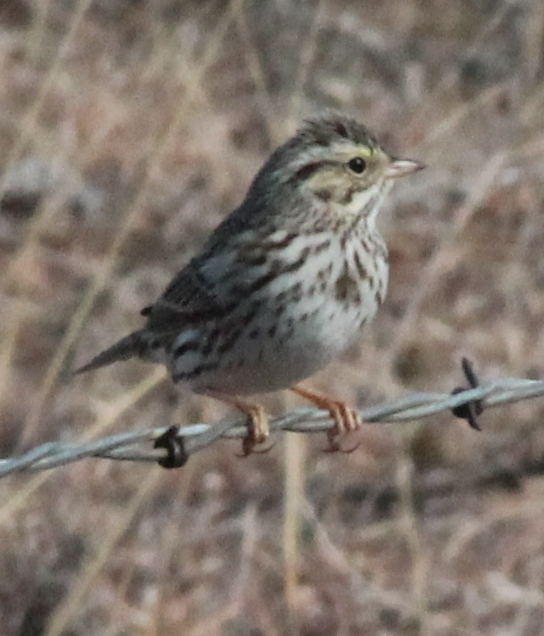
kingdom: Animalia
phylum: Chordata
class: Aves
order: Passeriformes
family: Passerellidae
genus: Passerculus
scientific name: Passerculus sandwichensis
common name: Savannah sparrow
